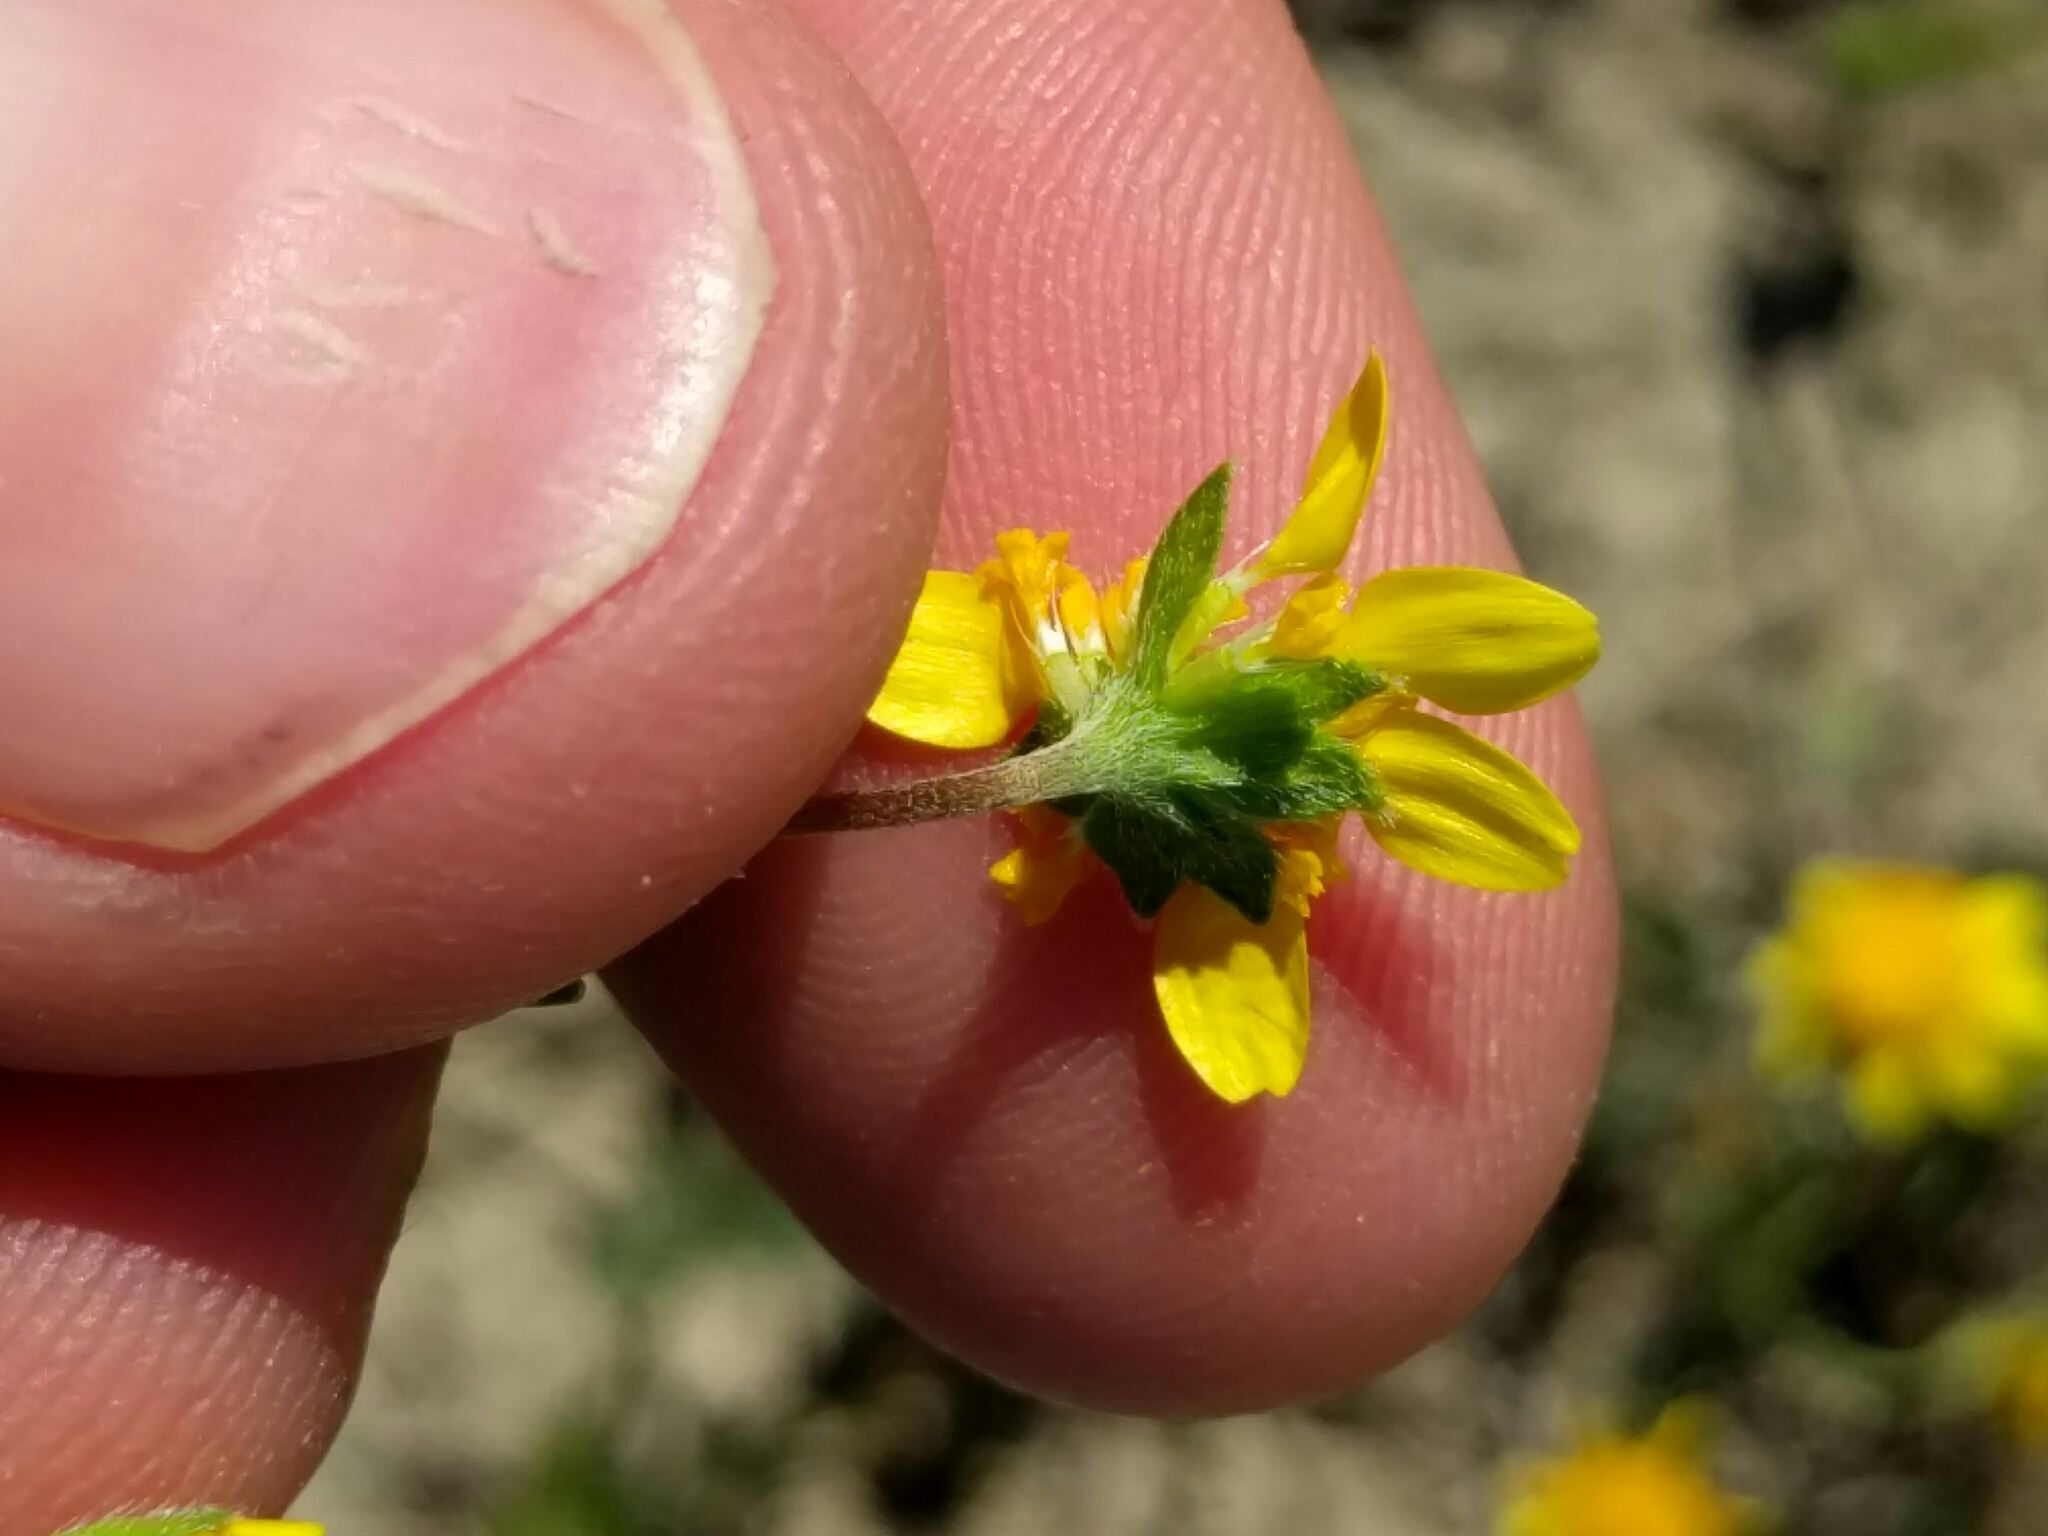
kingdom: Plantae
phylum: Tracheophyta
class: Magnoliopsida
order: Asterales
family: Asteraceae
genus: Lasthenia
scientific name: Lasthenia gracilis
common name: Common goldfields
